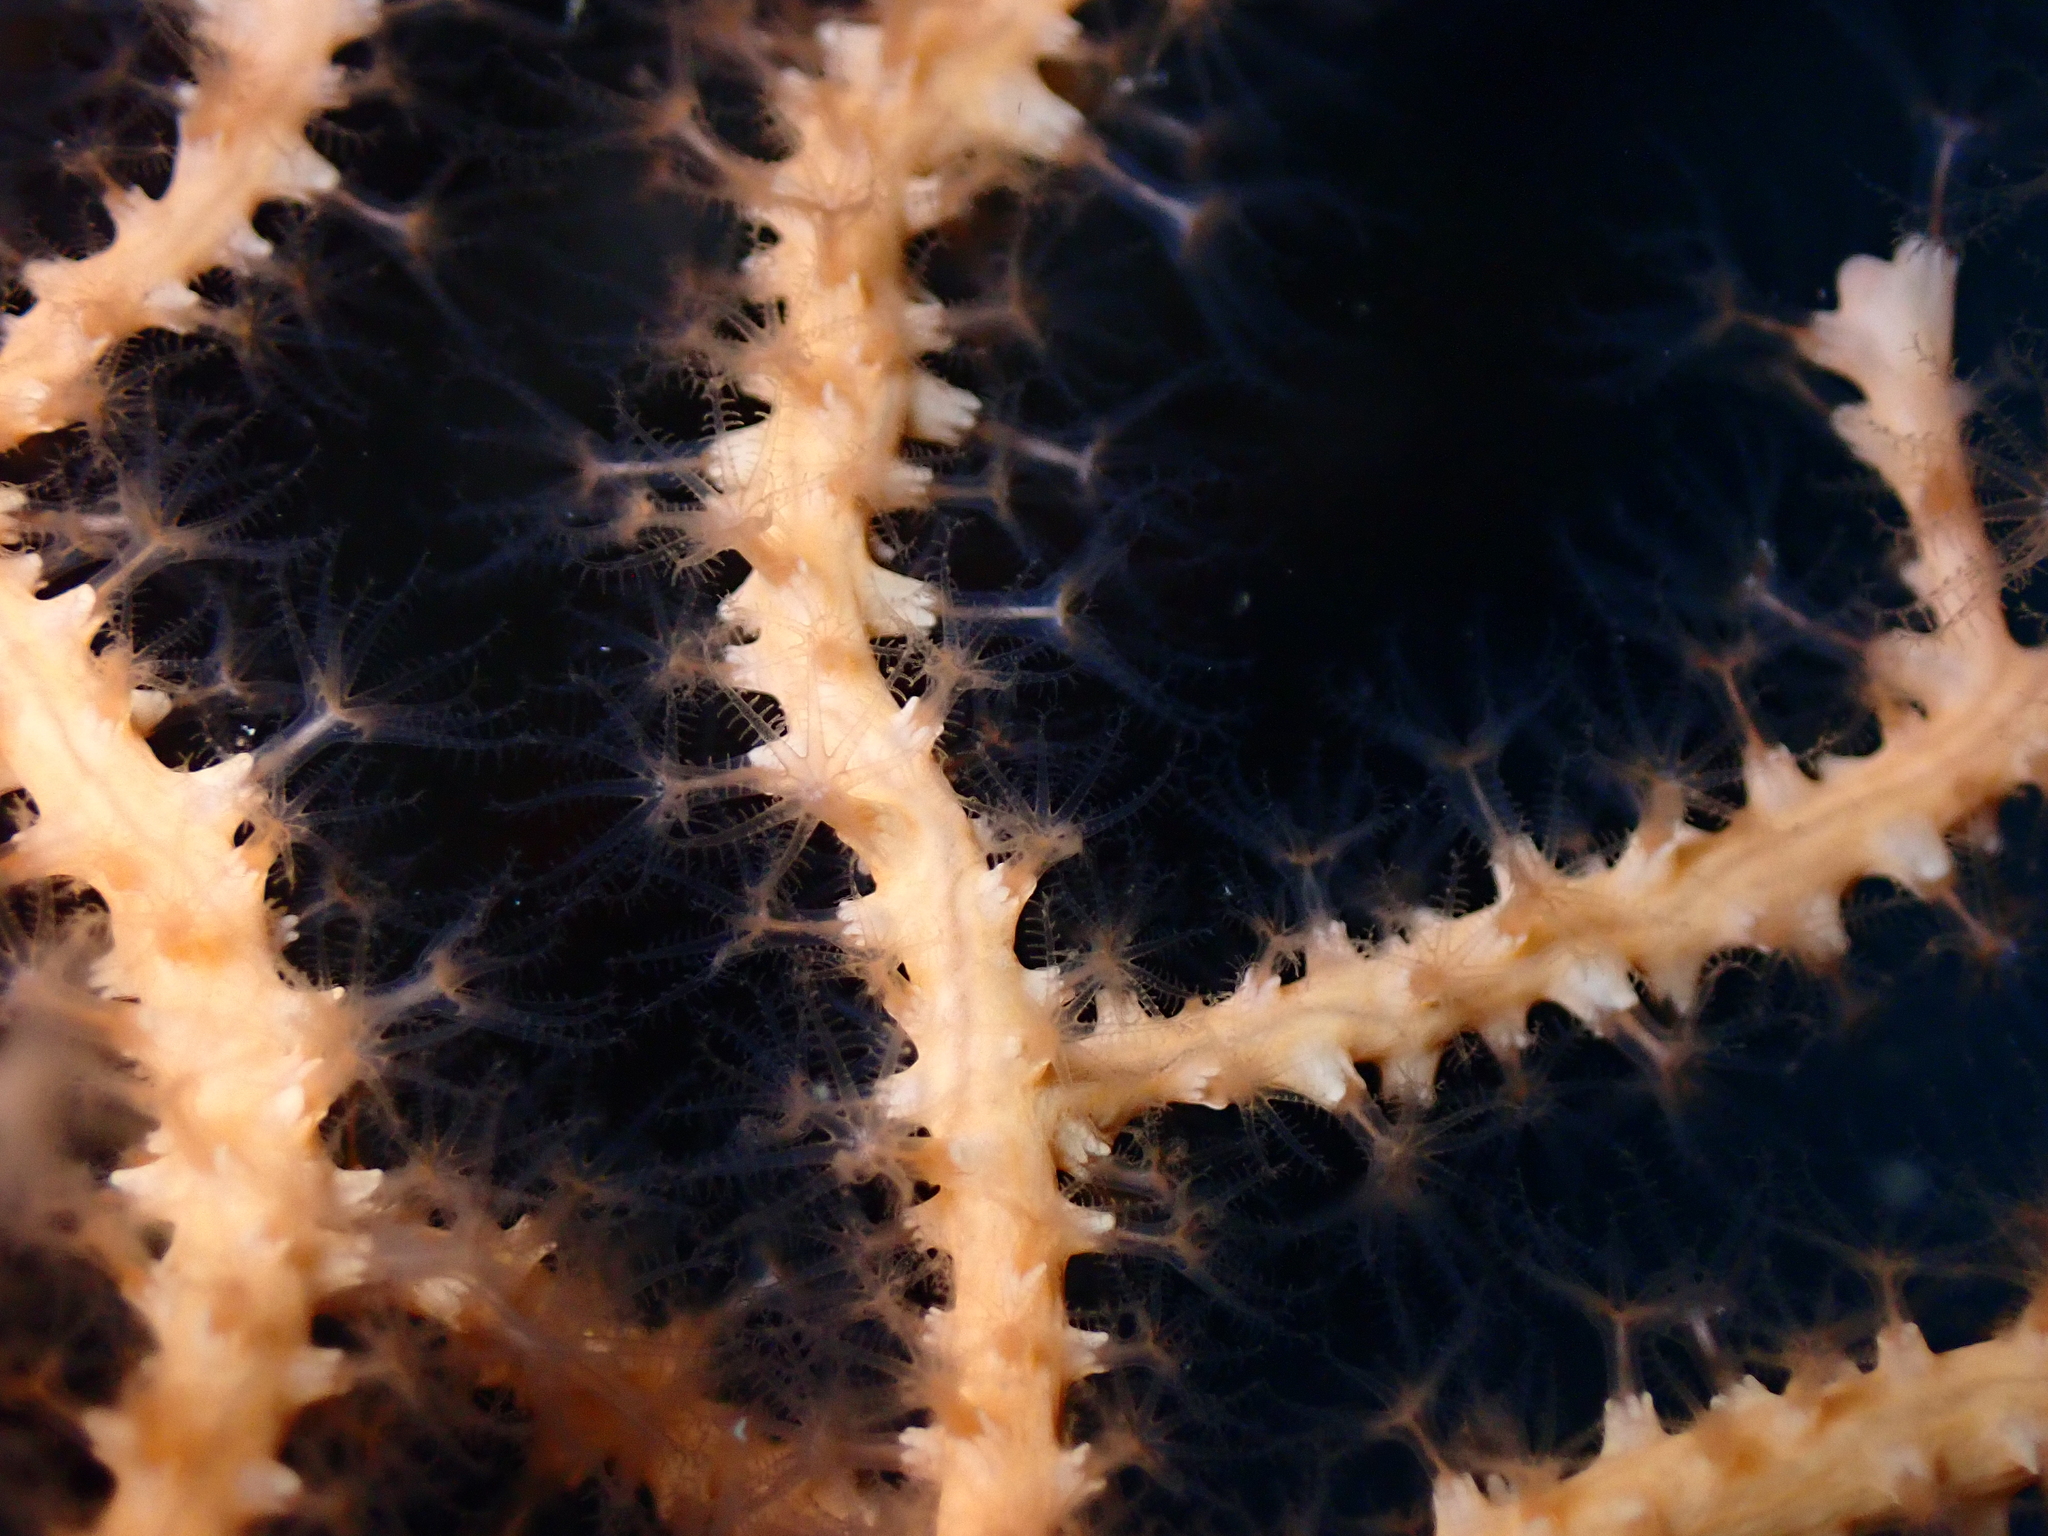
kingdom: Animalia
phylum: Cnidaria
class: Anthozoa
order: Malacalcyonacea
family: Eunicellidae
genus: Eunicella
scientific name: Eunicella cavolini
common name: Yellow gorgonian
